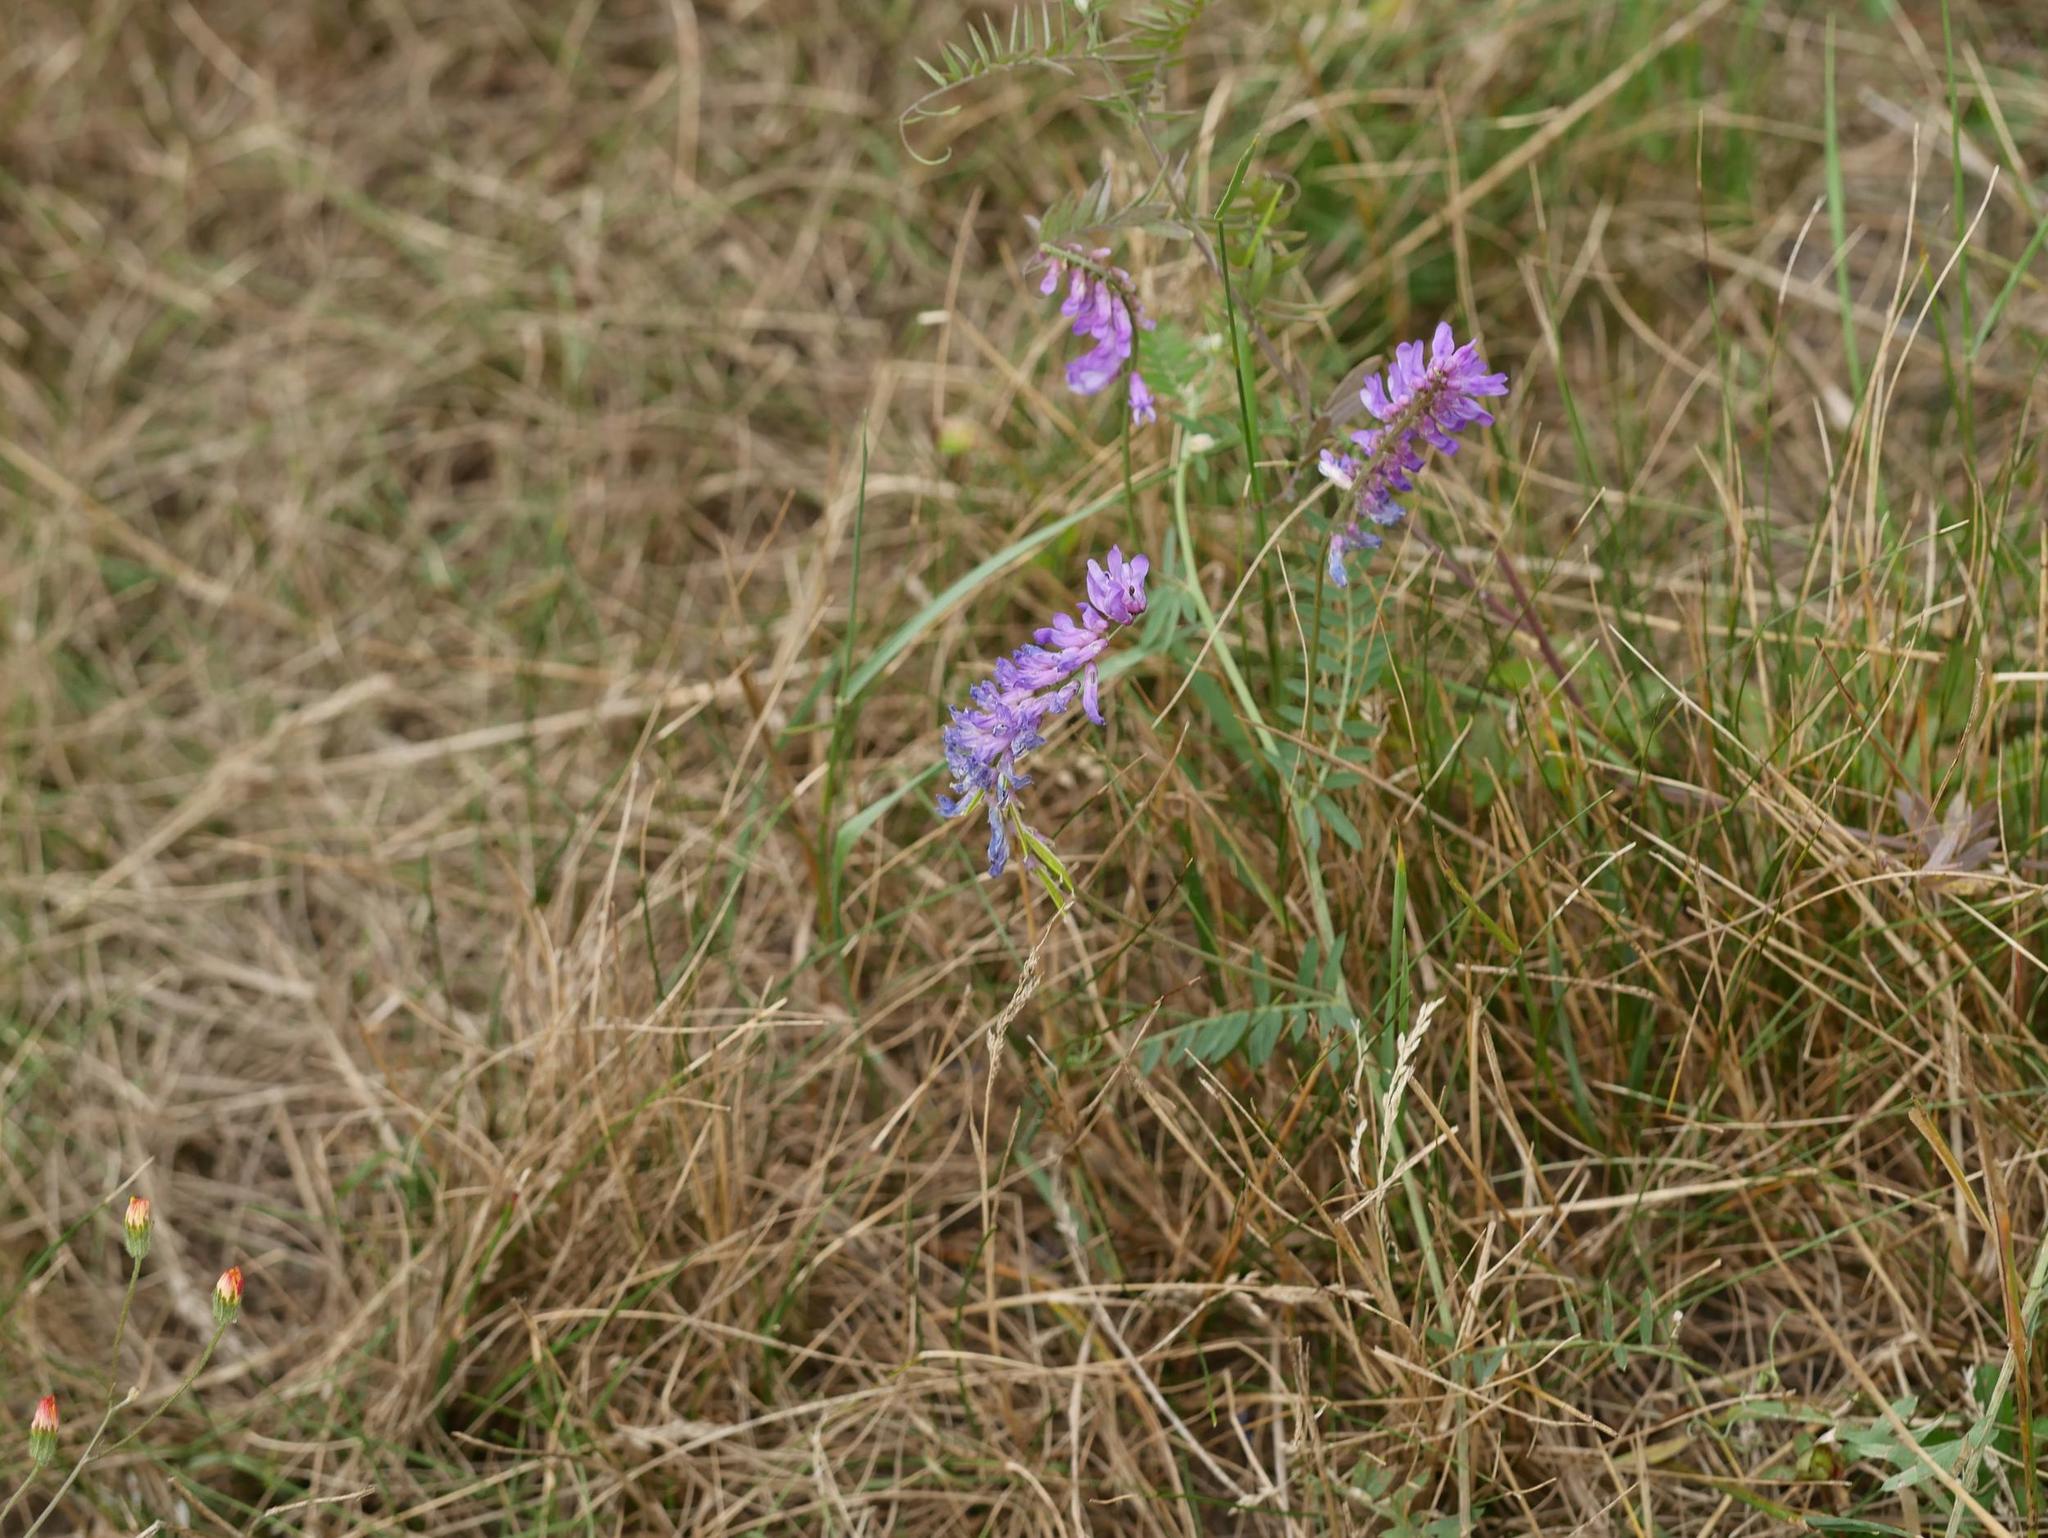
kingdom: Plantae
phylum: Tracheophyta
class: Magnoliopsida
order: Fabales
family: Fabaceae
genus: Vicia
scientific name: Vicia cracca
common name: Bird vetch
